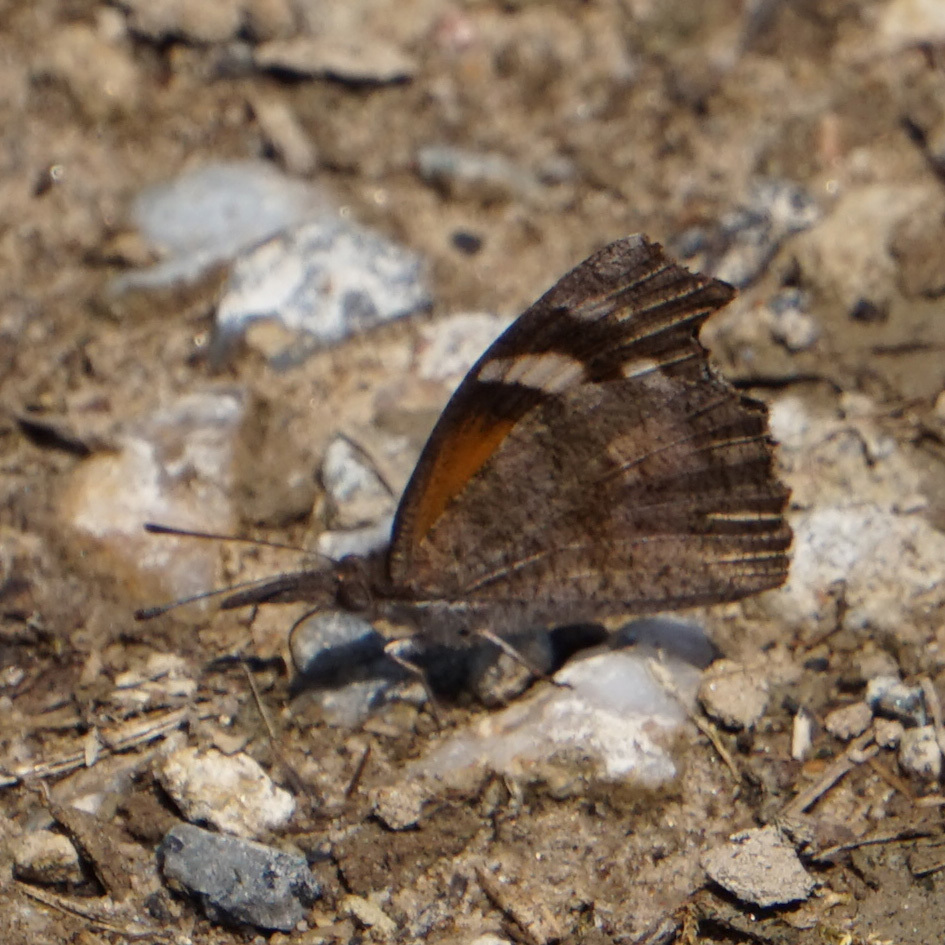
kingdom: Animalia
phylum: Arthropoda
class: Insecta
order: Lepidoptera
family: Nymphalidae
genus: Libytheana
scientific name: Libytheana carinenta
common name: American snout
